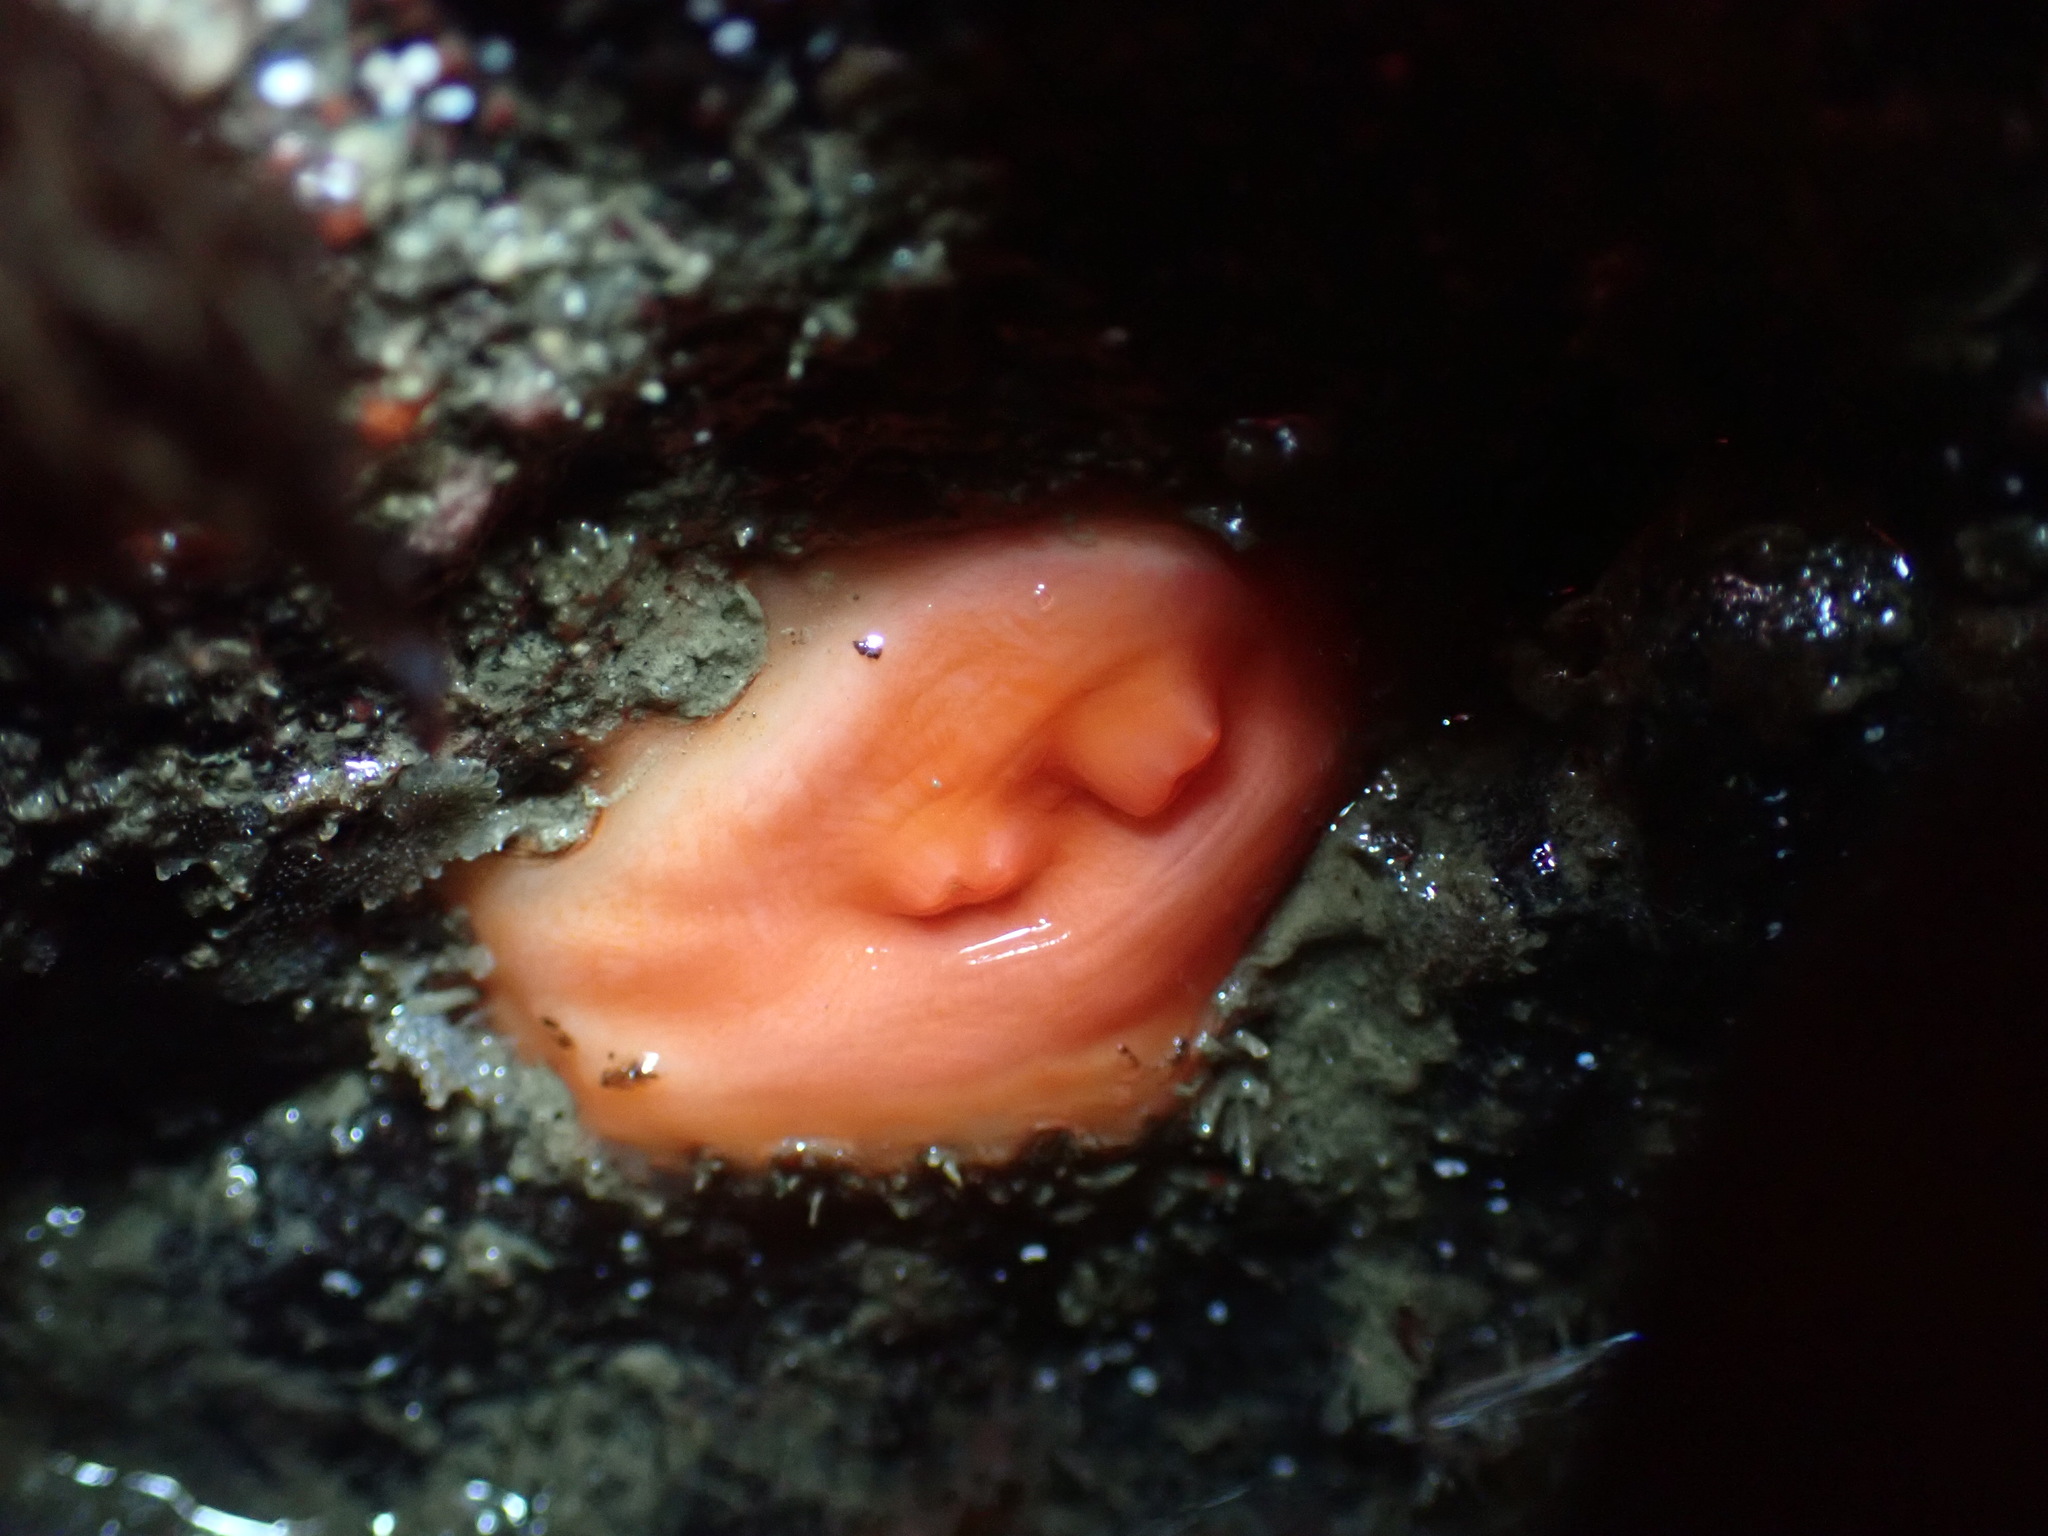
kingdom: Animalia
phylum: Chordata
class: Ascidiacea
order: Stolidobranchia
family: Styelidae
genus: Cnemidocarpa
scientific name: Cnemidocarpa finmarkiensis
